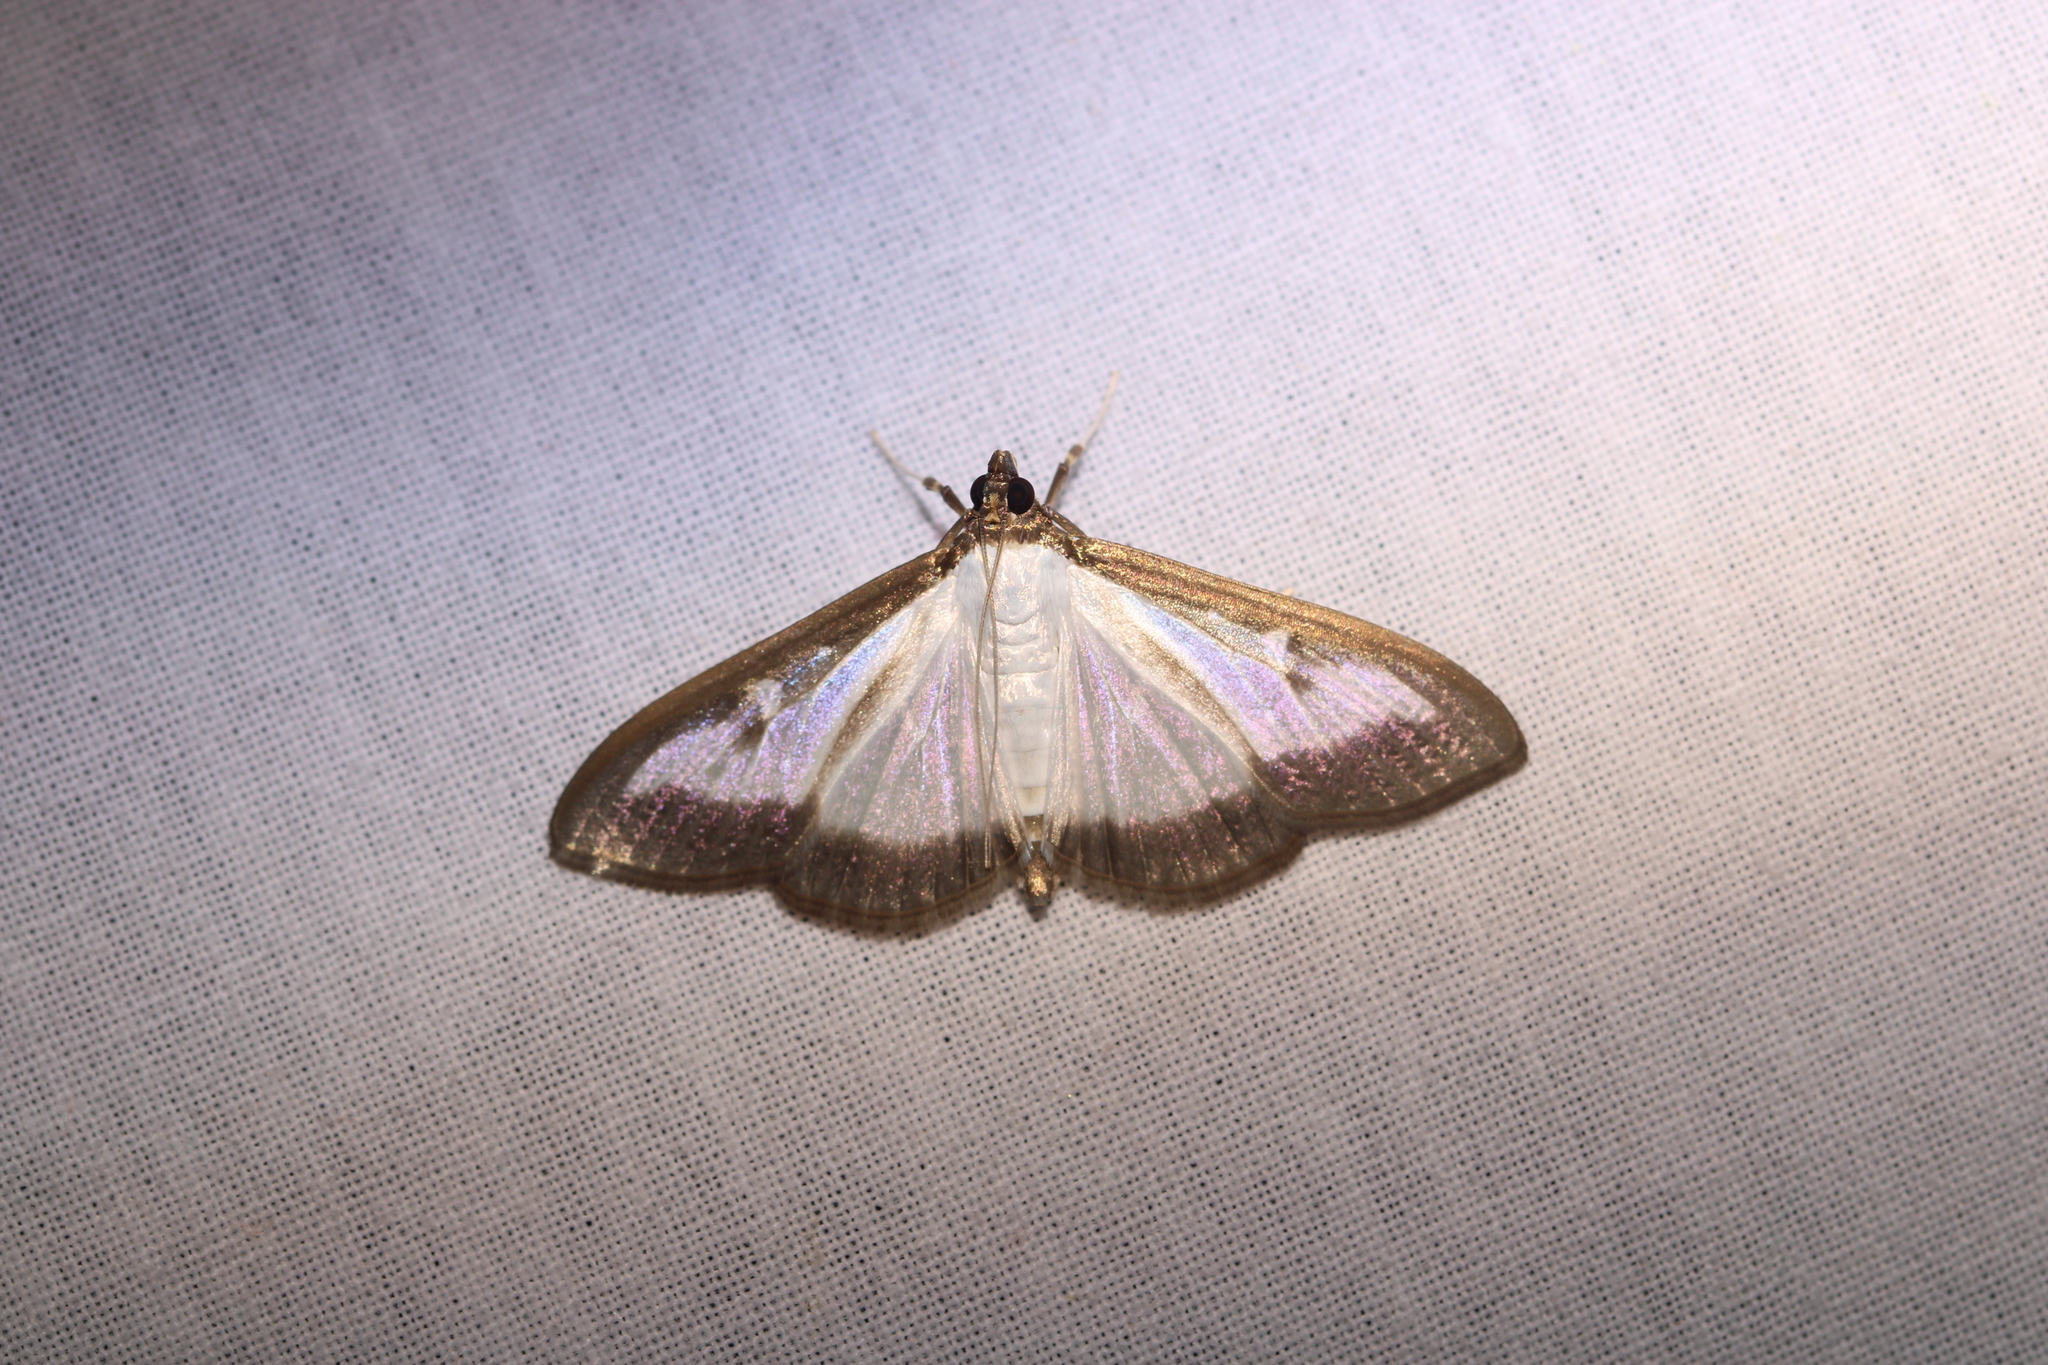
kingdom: Animalia
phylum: Arthropoda
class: Insecta
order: Lepidoptera
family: Crambidae
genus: Cydalima
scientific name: Cydalima perspectalis
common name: Box tree moth
